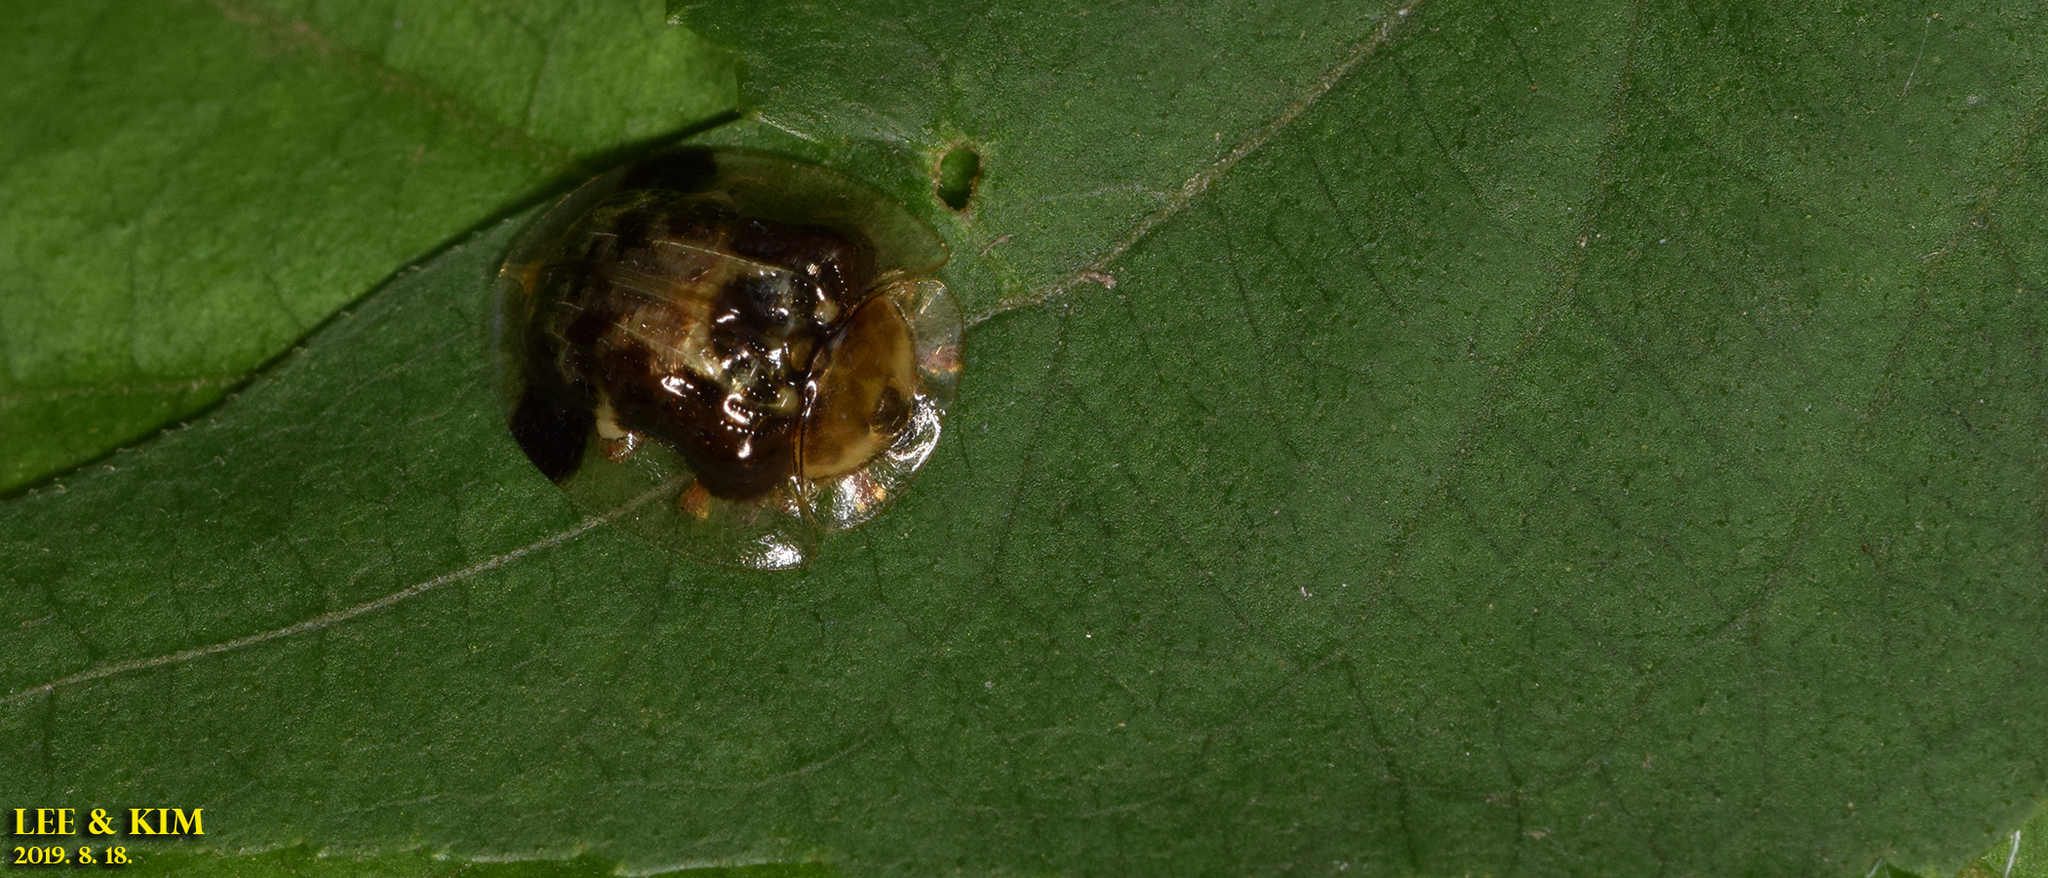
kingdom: Animalia
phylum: Arthropoda
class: Insecta
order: Coleoptera
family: Chrysomelidae
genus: Thlaspida
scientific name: Thlaspida biramosa
